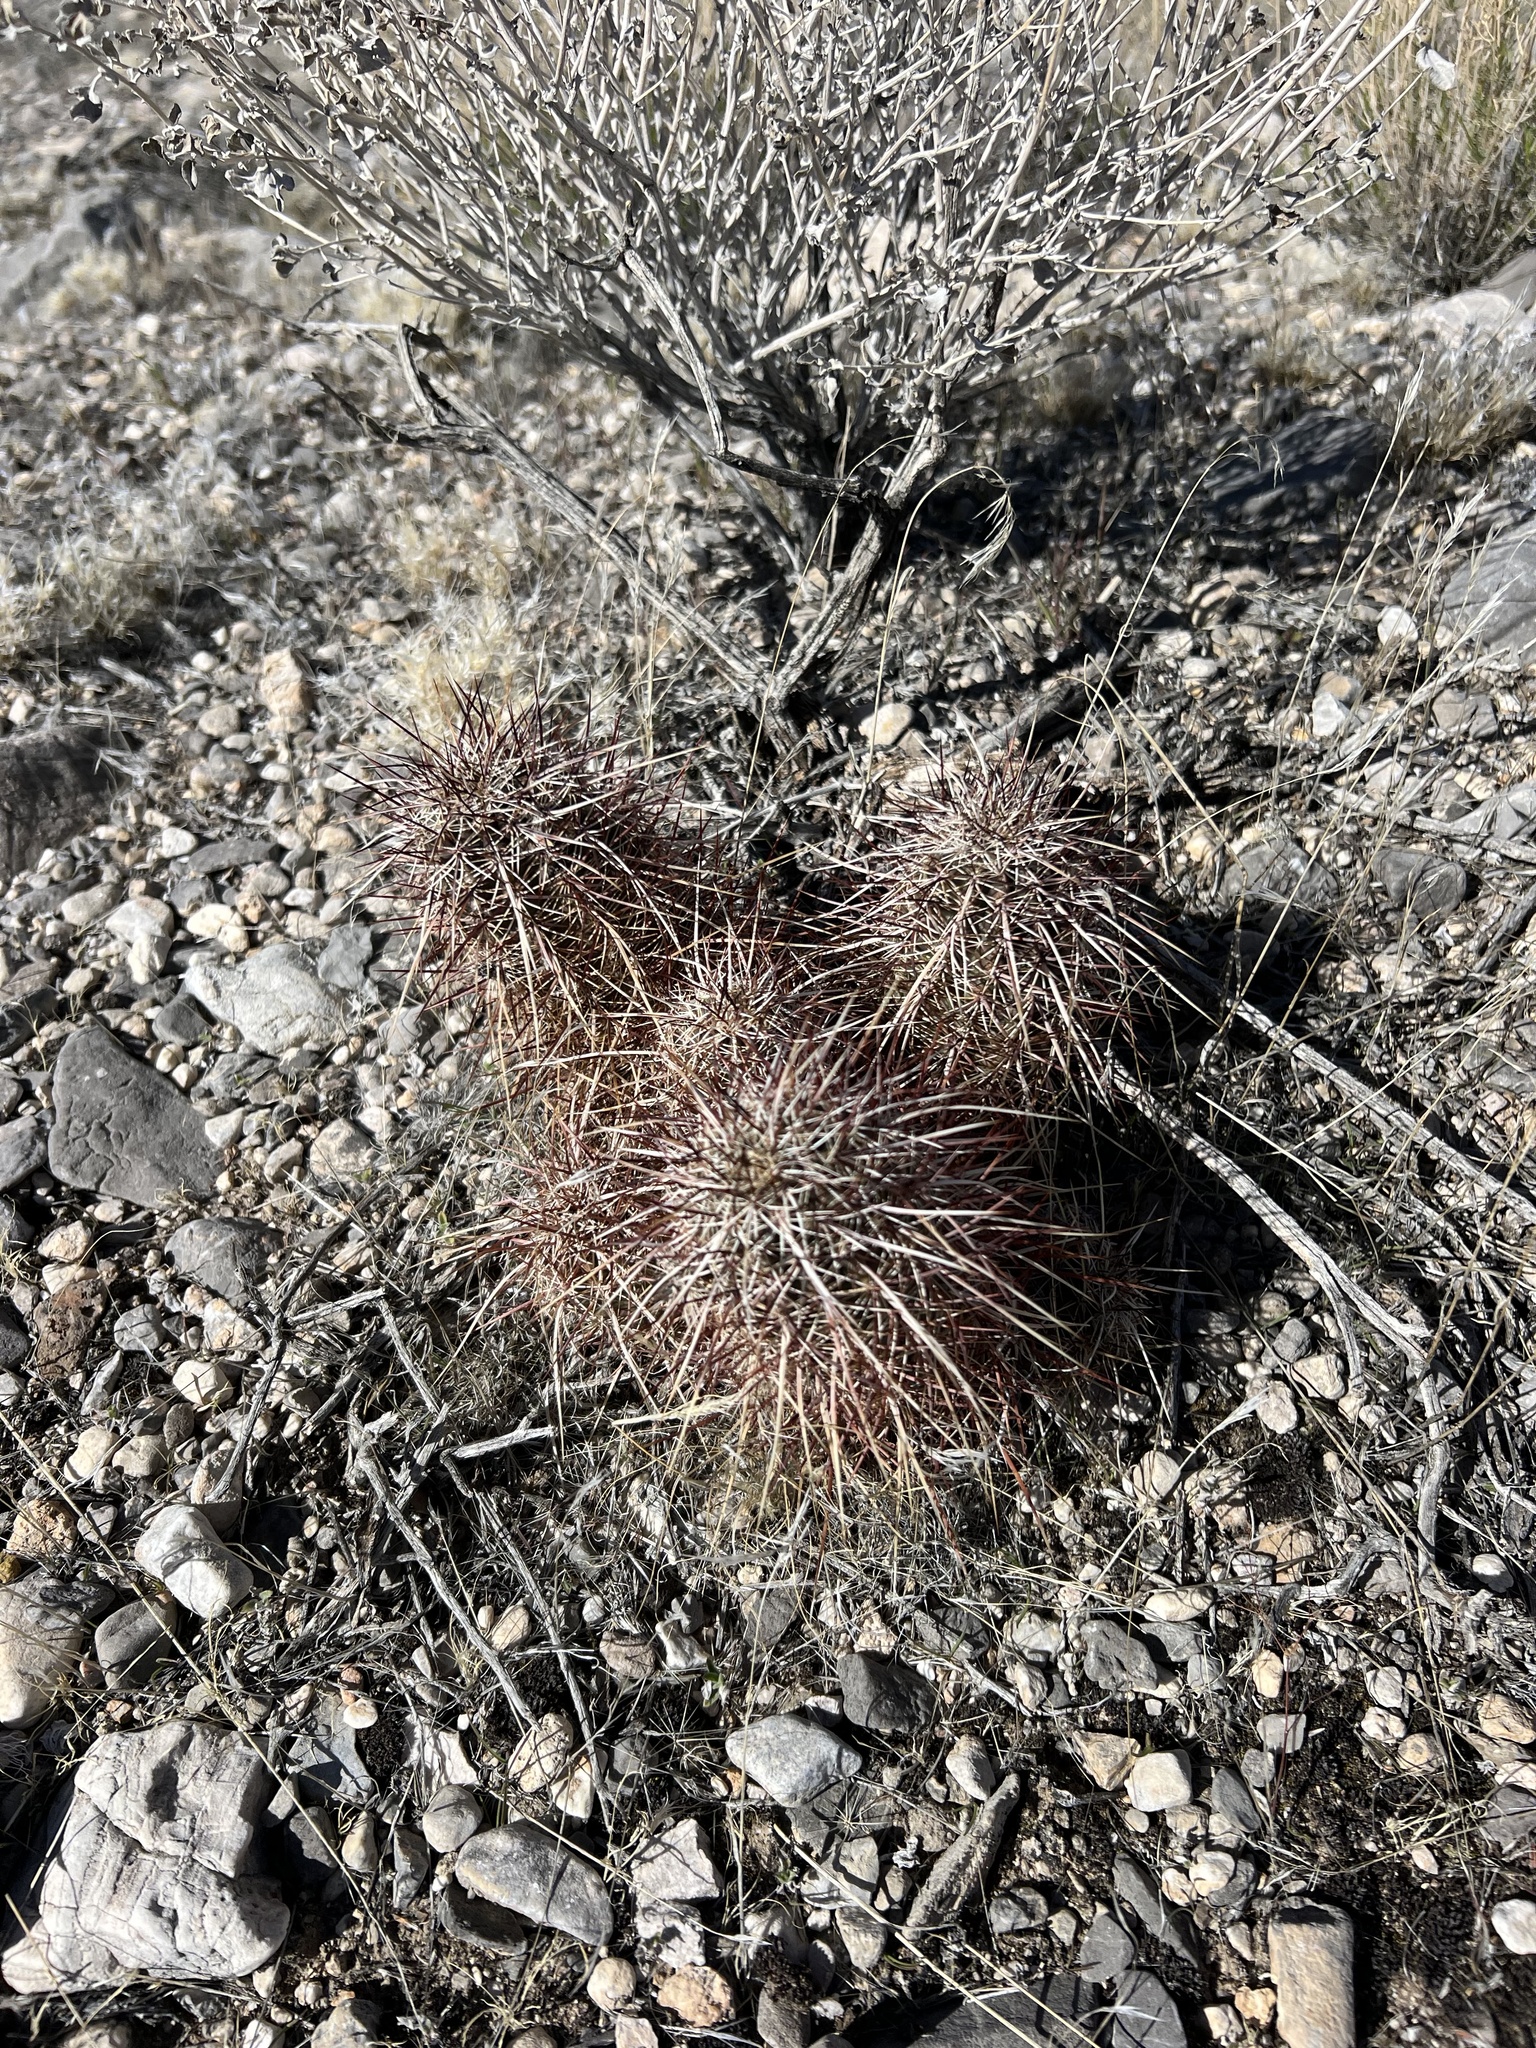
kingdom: Plantae
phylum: Tracheophyta
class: Magnoliopsida
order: Caryophyllales
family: Cactaceae
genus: Echinocereus
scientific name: Echinocereus engelmannii
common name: Engelmann's hedgehog cactus
